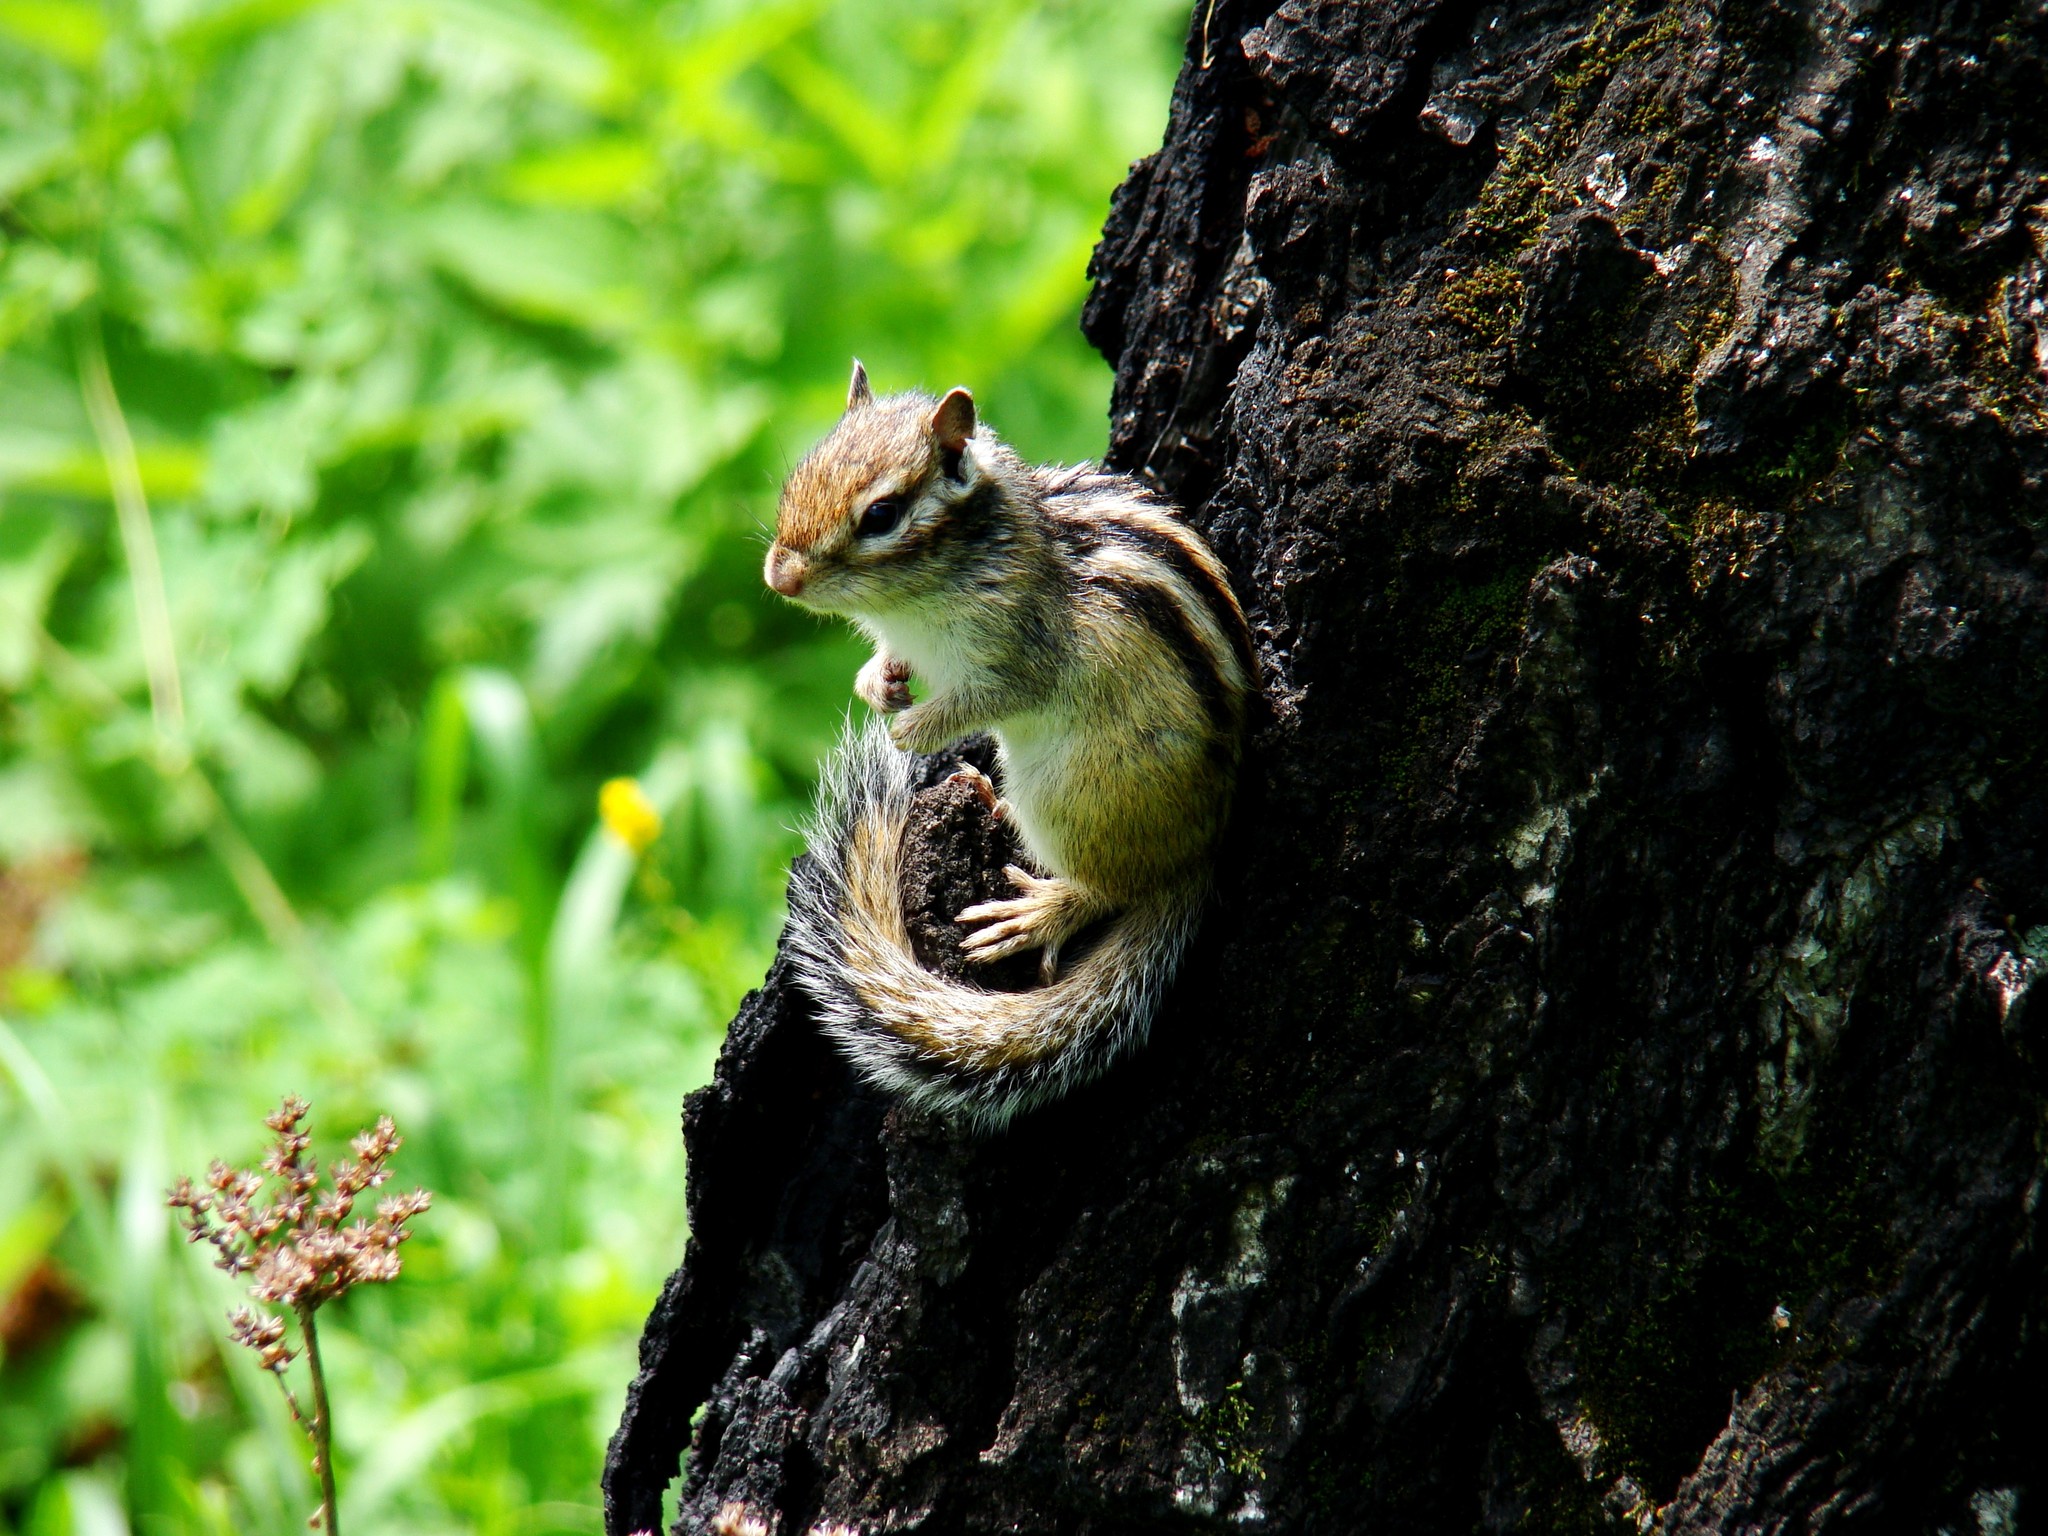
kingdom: Animalia
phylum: Chordata
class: Mammalia
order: Rodentia
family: Sciuridae
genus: Tamias
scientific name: Tamias sibiricus
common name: Siberian chipmunk
